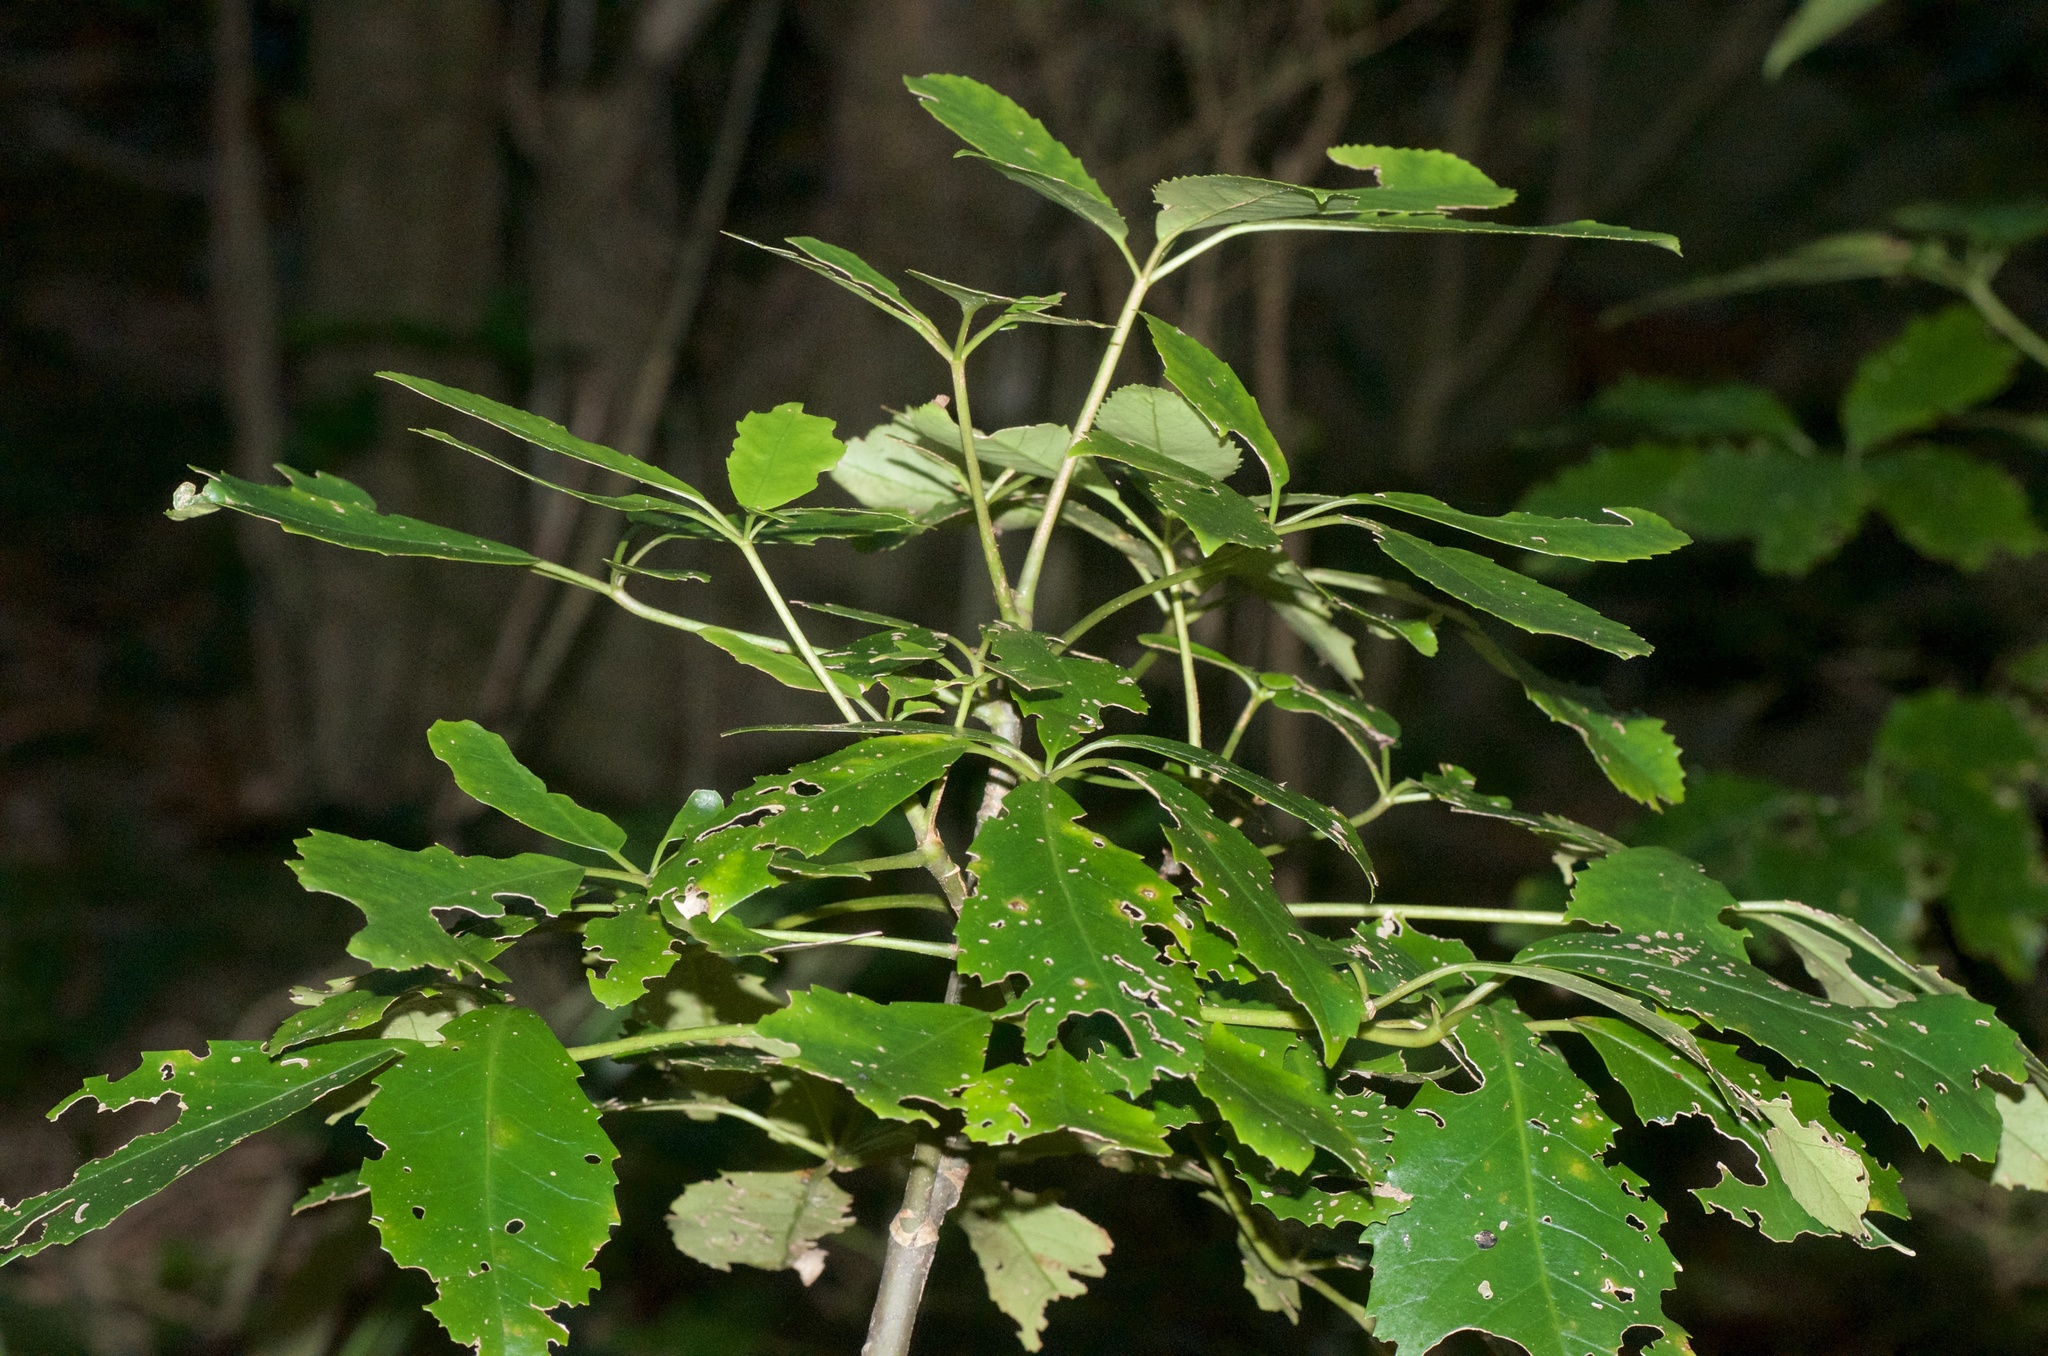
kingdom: Plantae
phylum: Tracheophyta
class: Magnoliopsida
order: Apiales
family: Araliaceae
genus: Neopanax
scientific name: Neopanax arboreus
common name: Five-fingers
